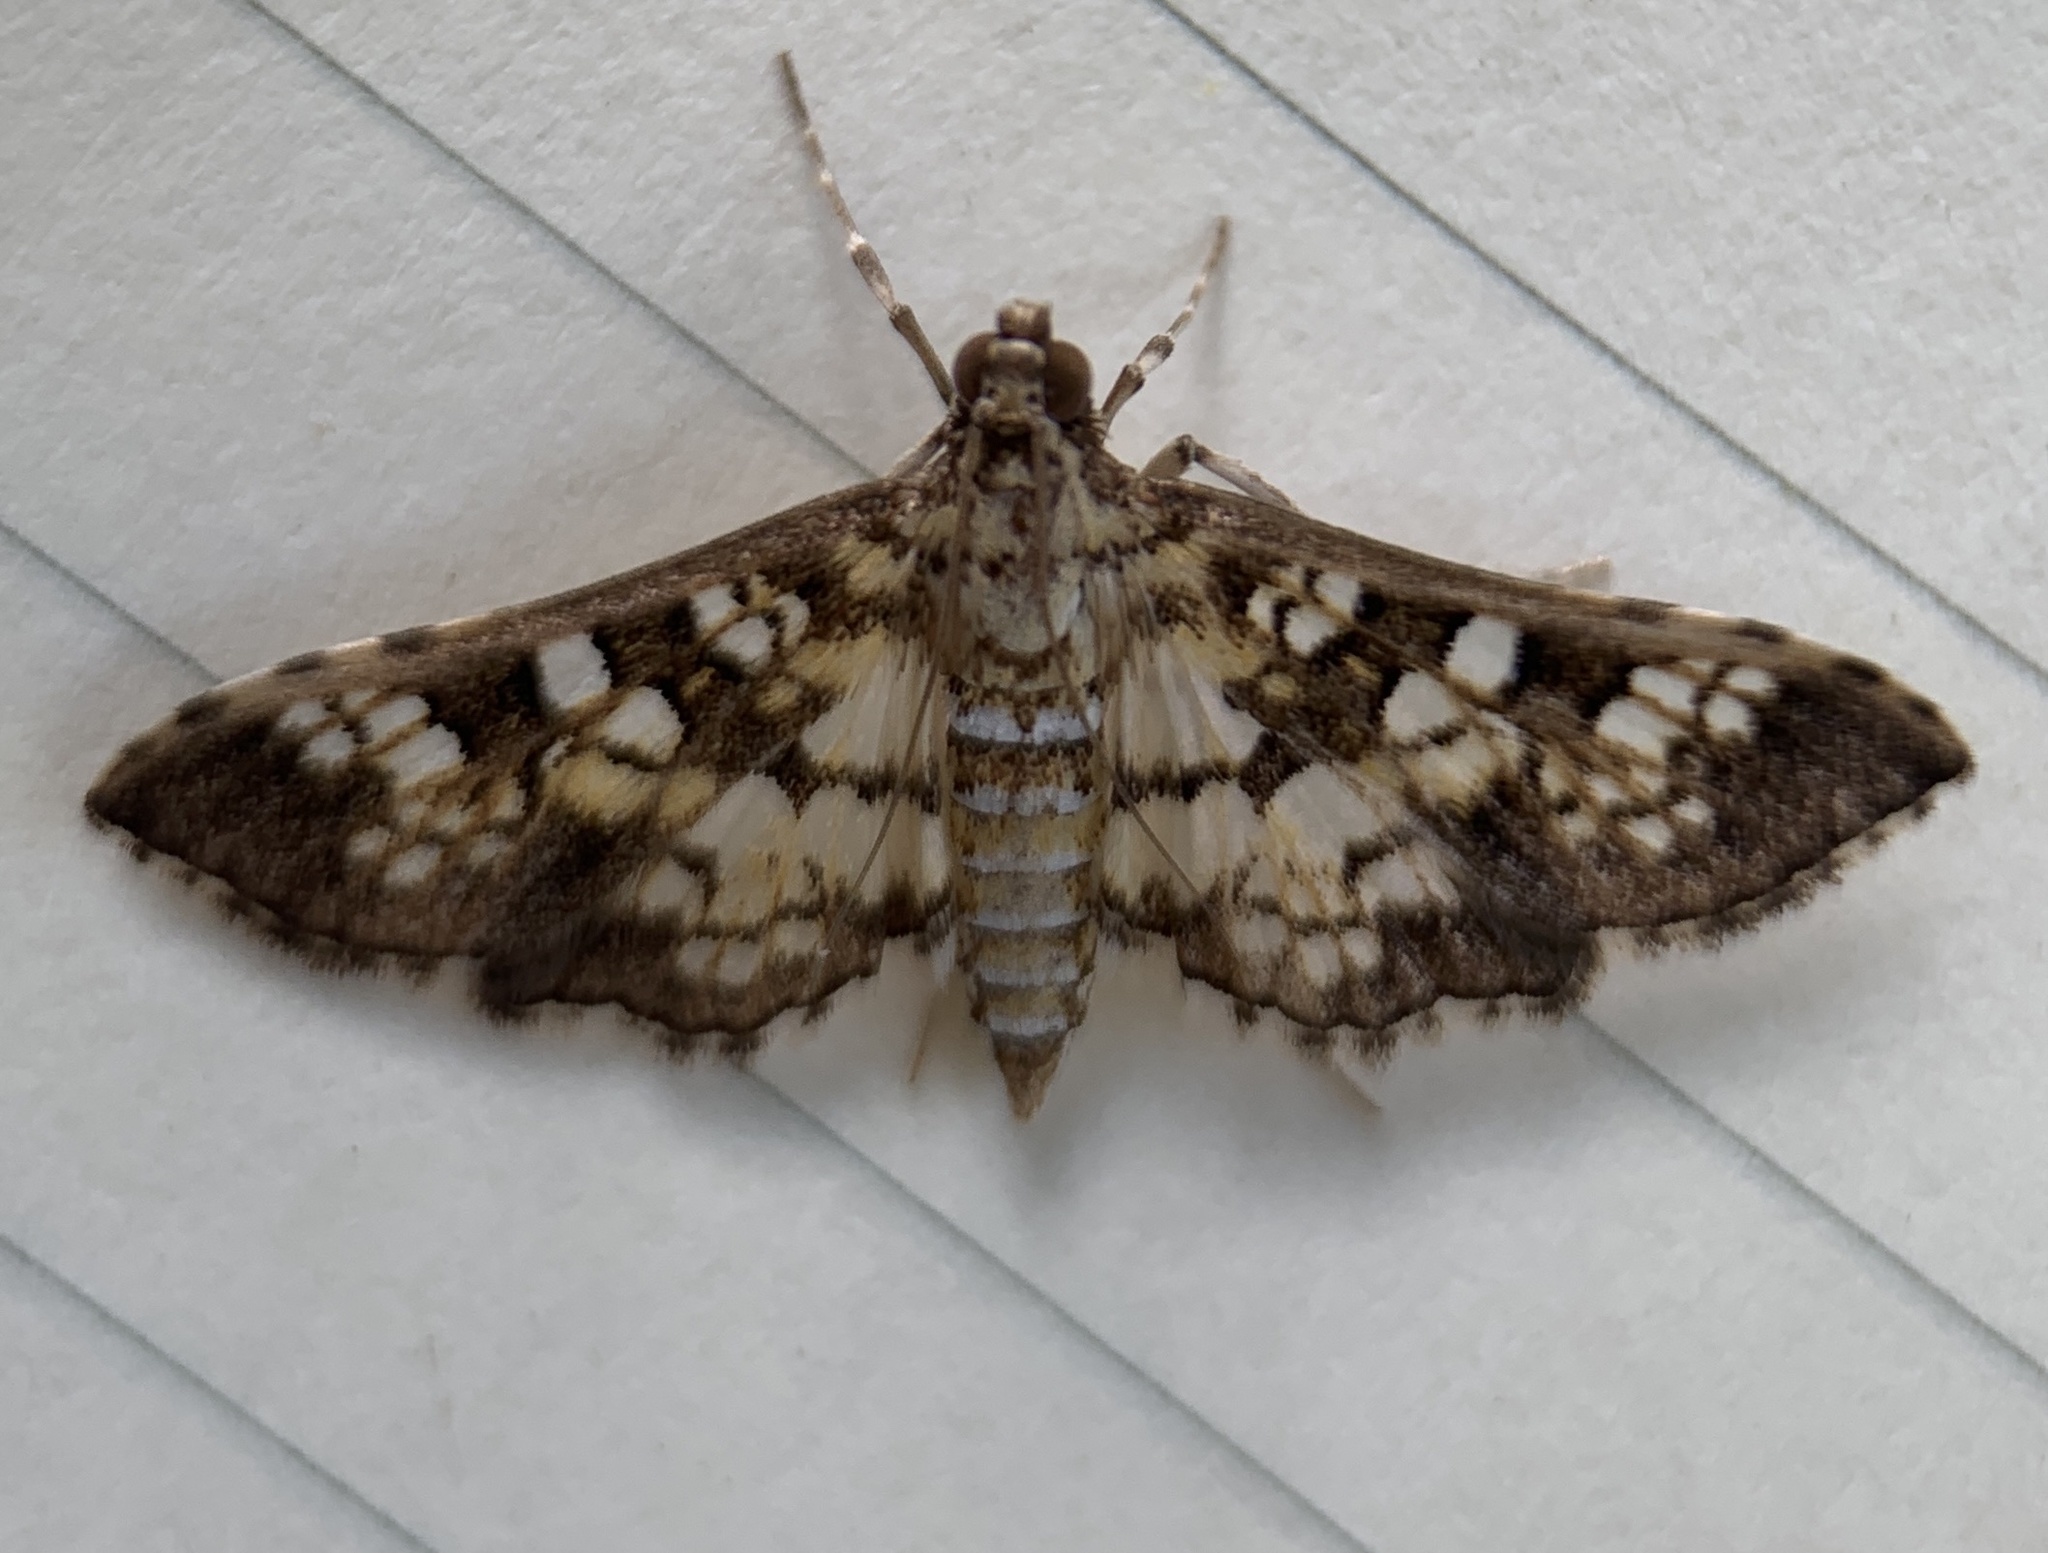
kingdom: Animalia
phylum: Arthropoda
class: Insecta
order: Lepidoptera
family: Crambidae
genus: Samea
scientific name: Samea ecclesialis
